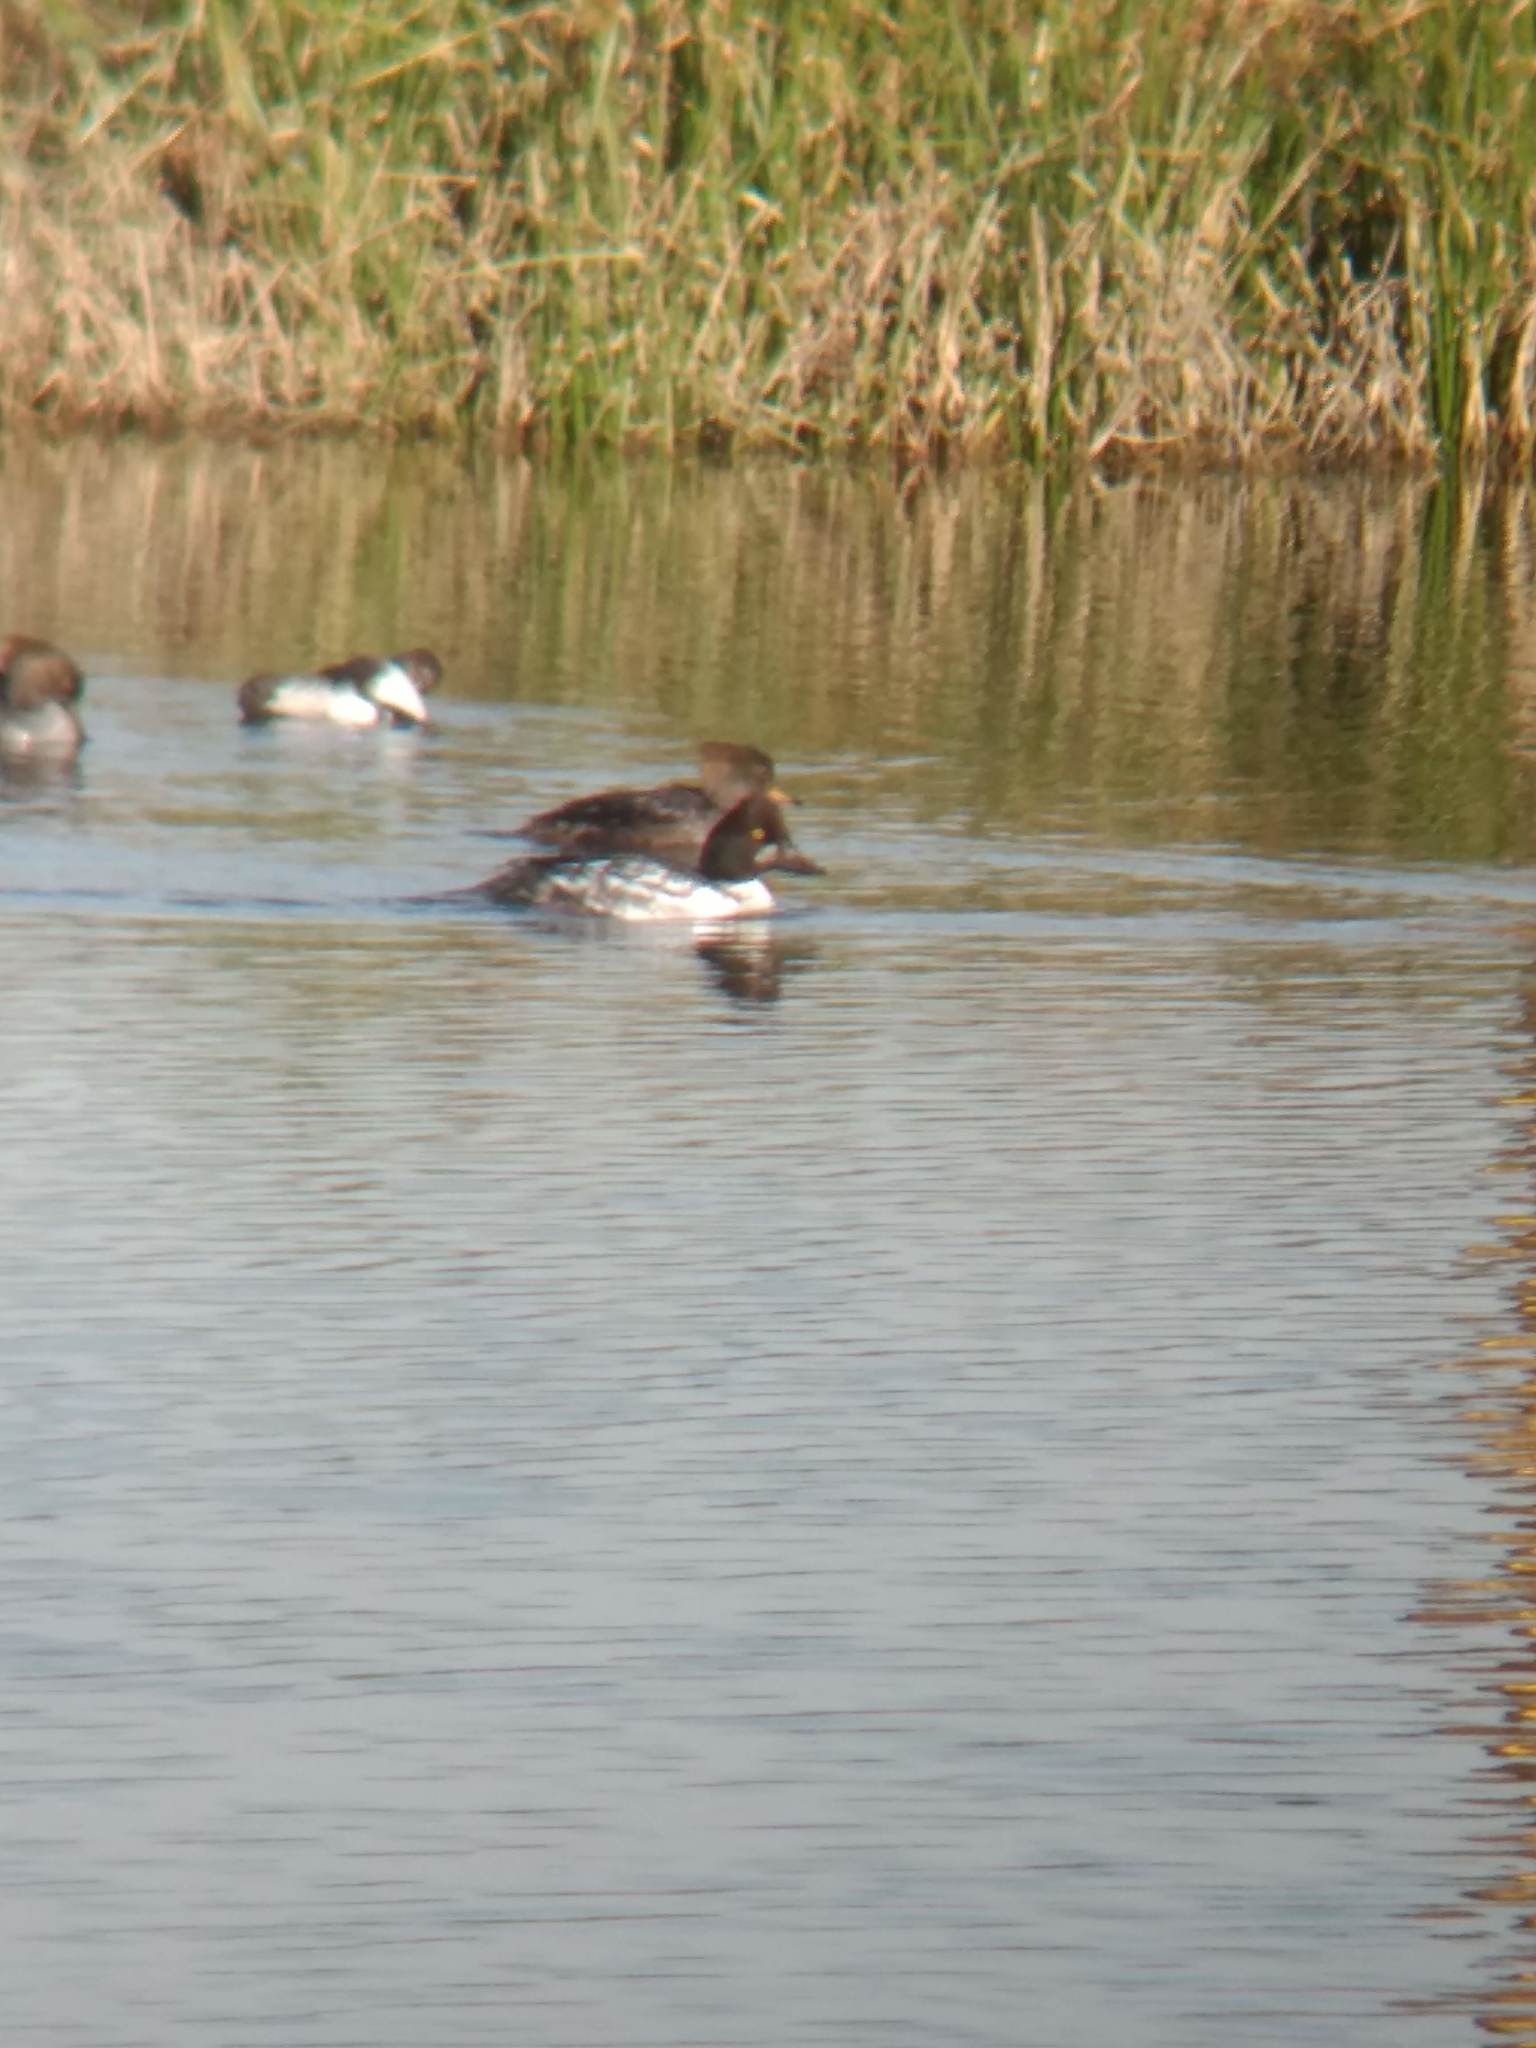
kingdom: Animalia
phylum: Chordata
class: Aves
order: Anseriformes
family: Anatidae
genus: Bucephala
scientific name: Bucephala clangula
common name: Common goldeneye
